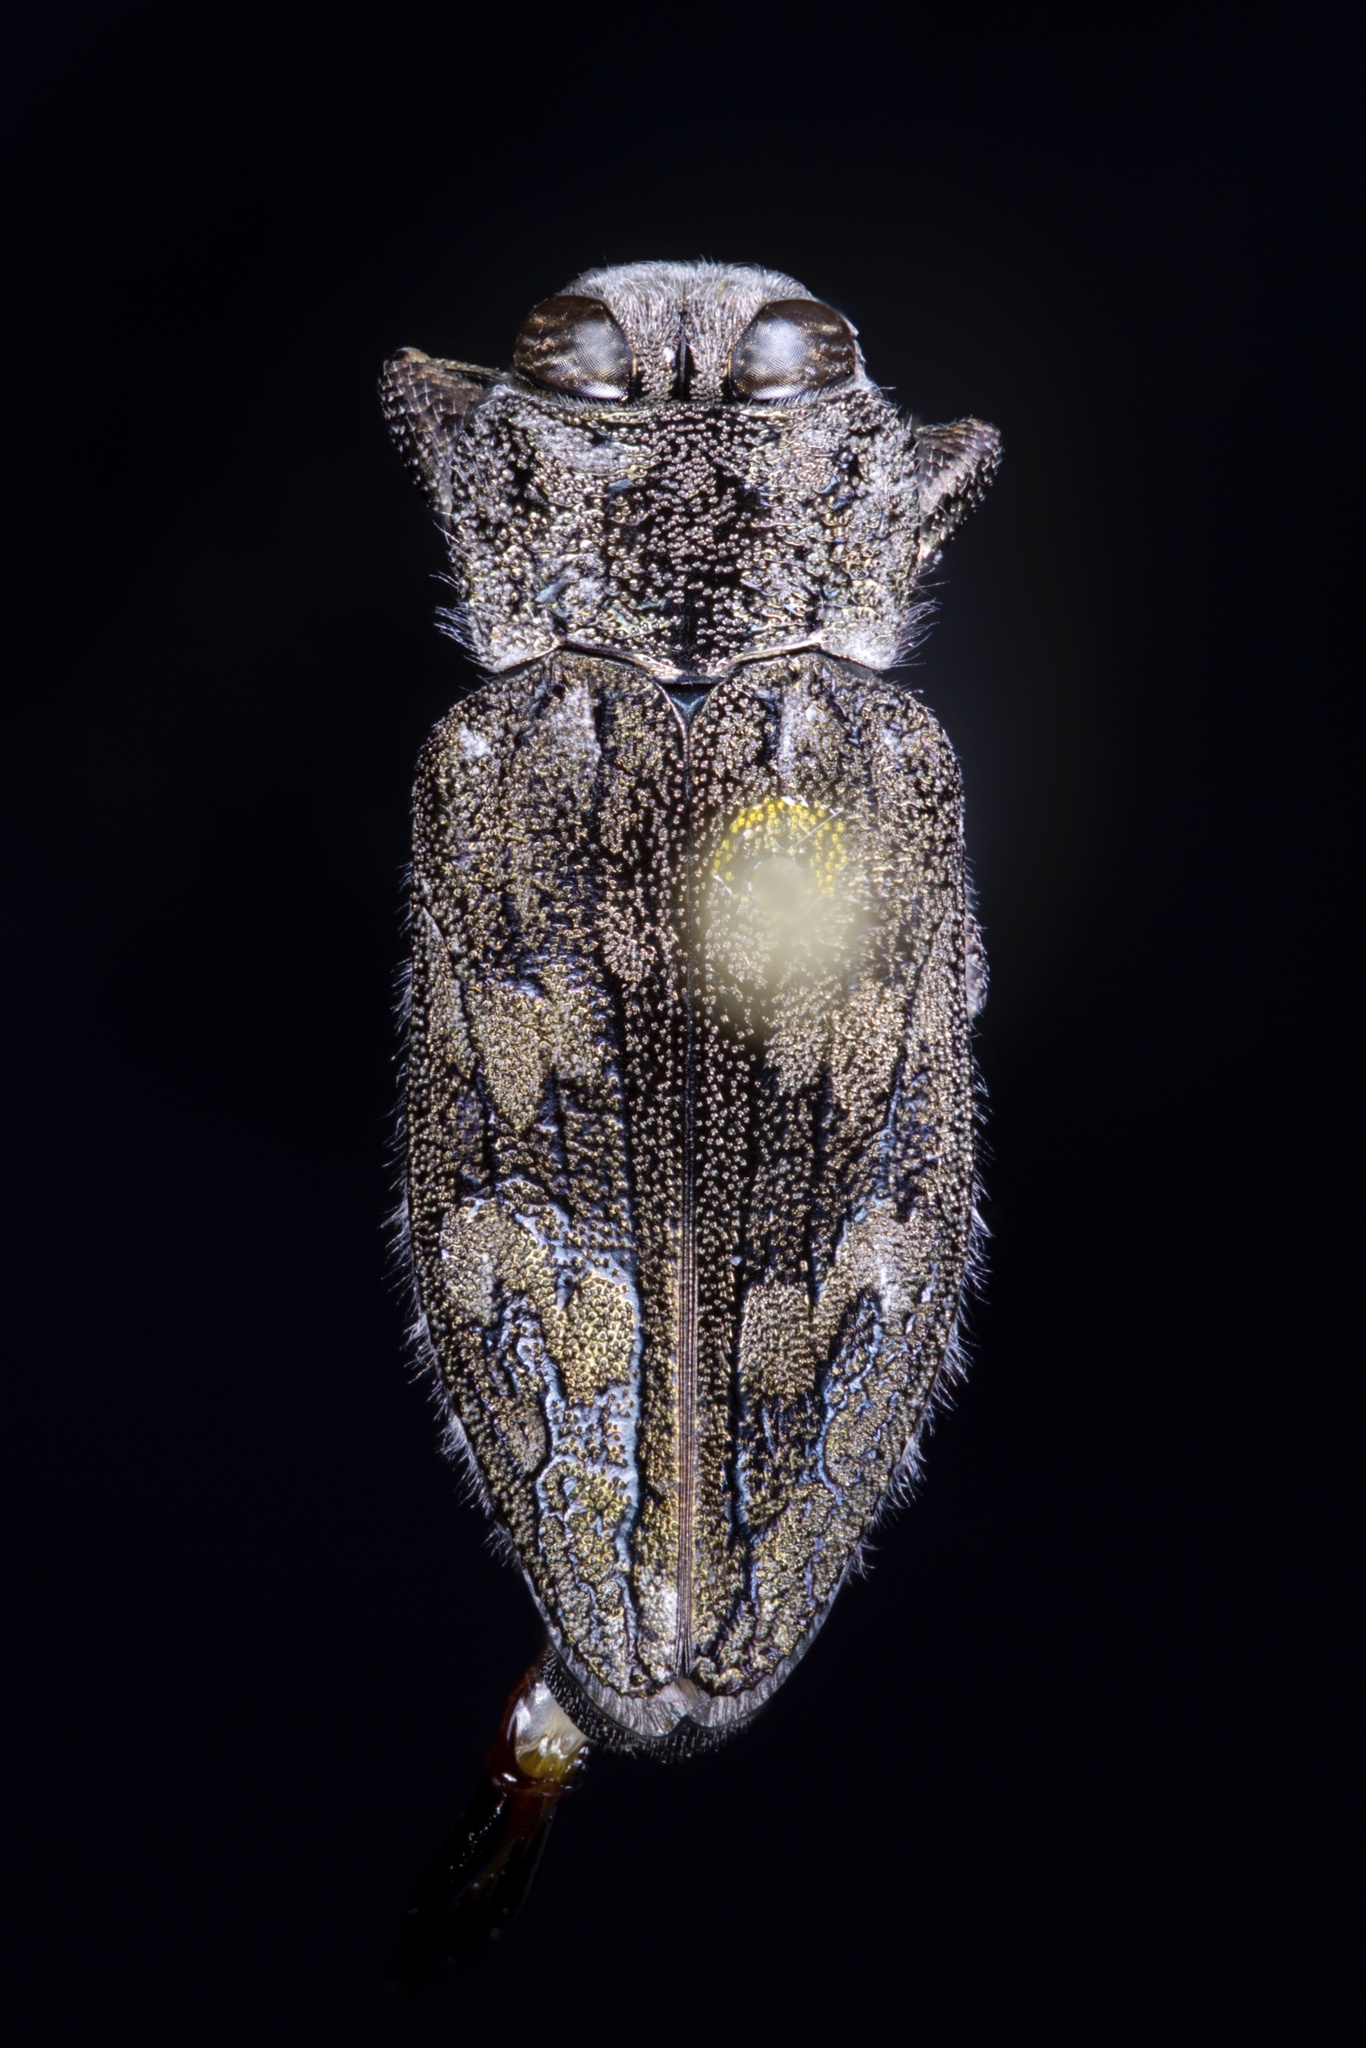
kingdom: Animalia
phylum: Arthropoda
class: Insecta
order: Coleoptera
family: Buprestidae
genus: Chrysobothris
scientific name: Chrysobothris rugosiceps
